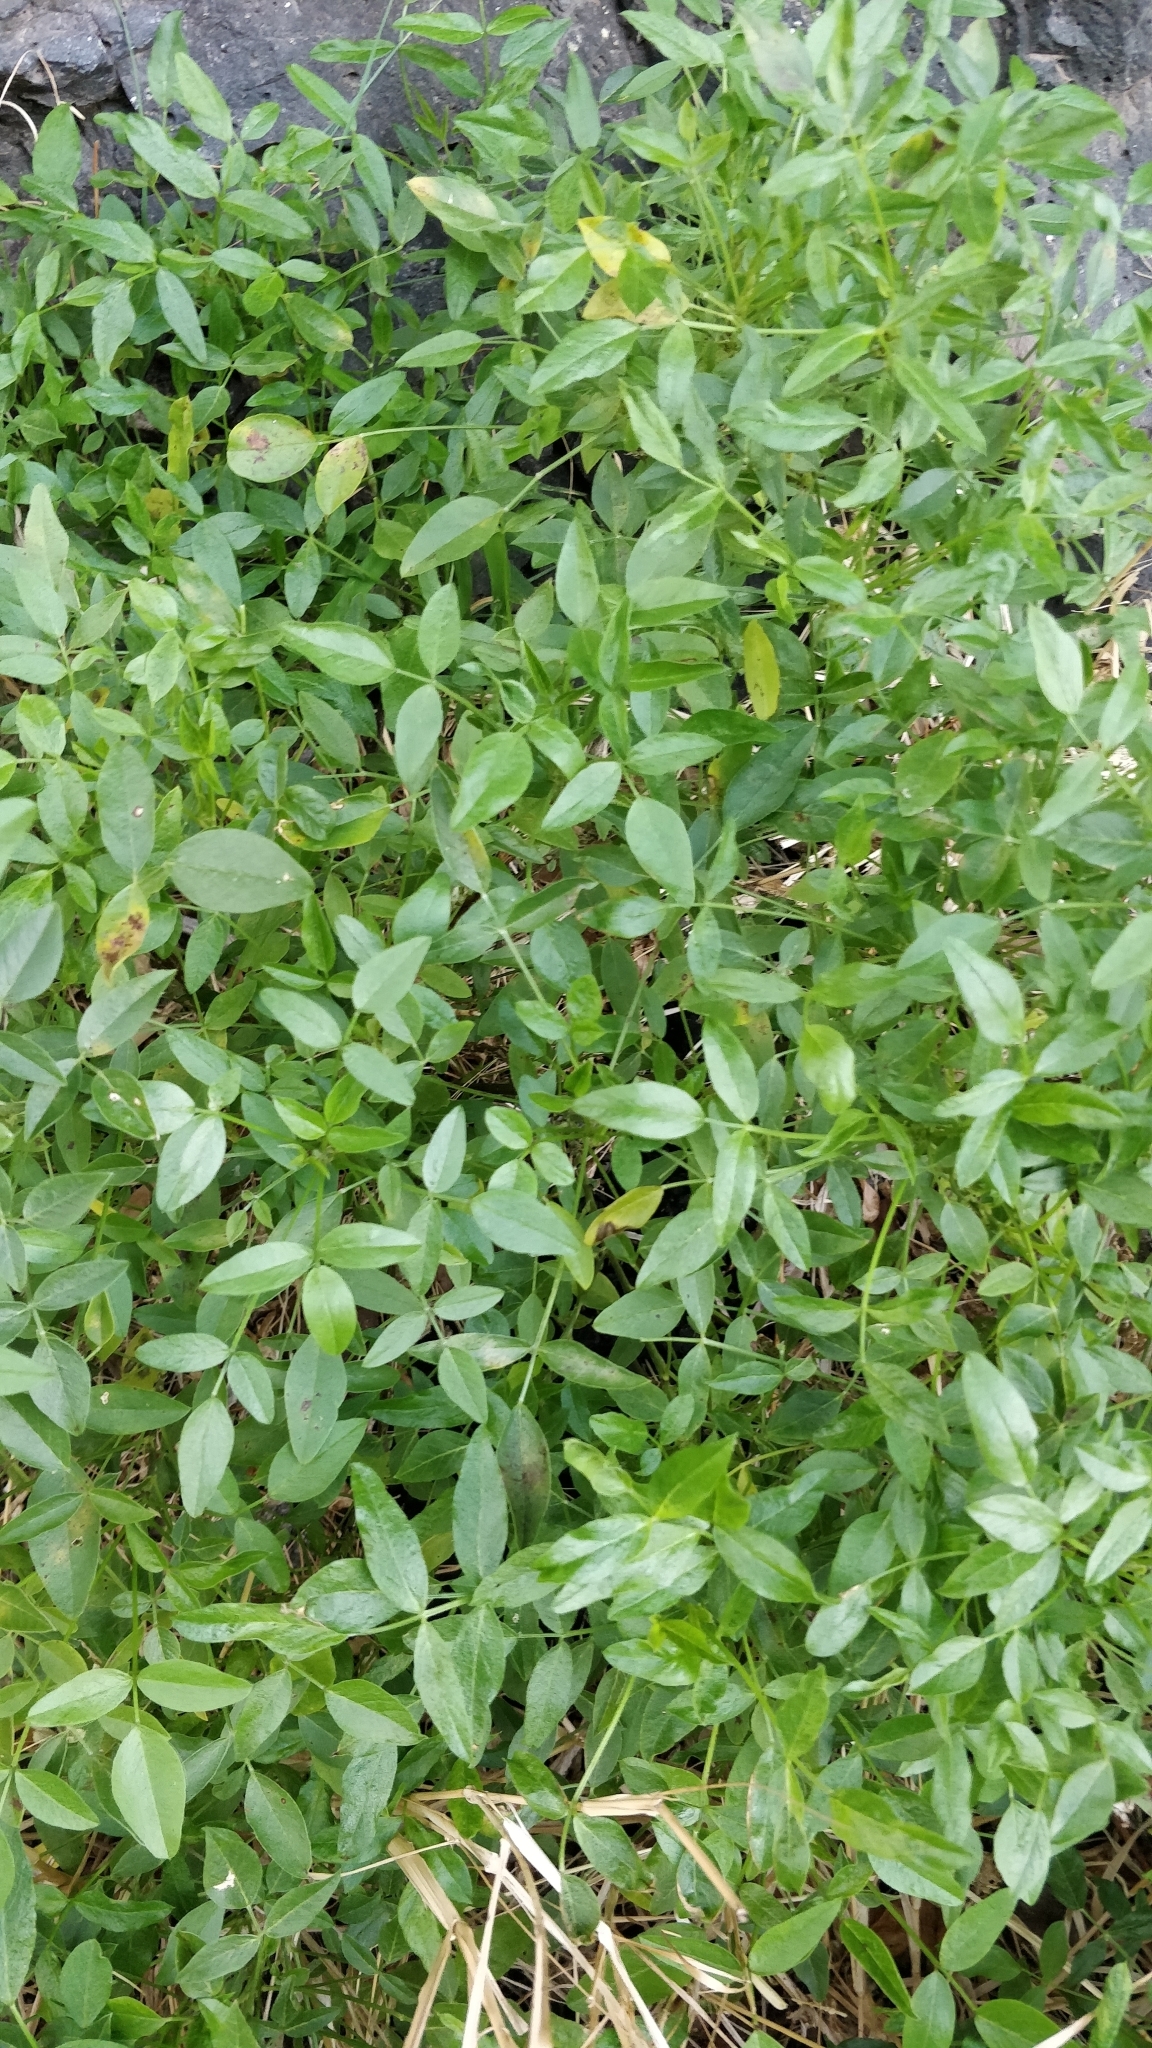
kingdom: Plantae
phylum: Tracheophyta
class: Magnoliopsida
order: Fabales
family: Fabaceae
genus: Bituminaria
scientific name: Bituminaria bituminosa
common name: Arabian pea
